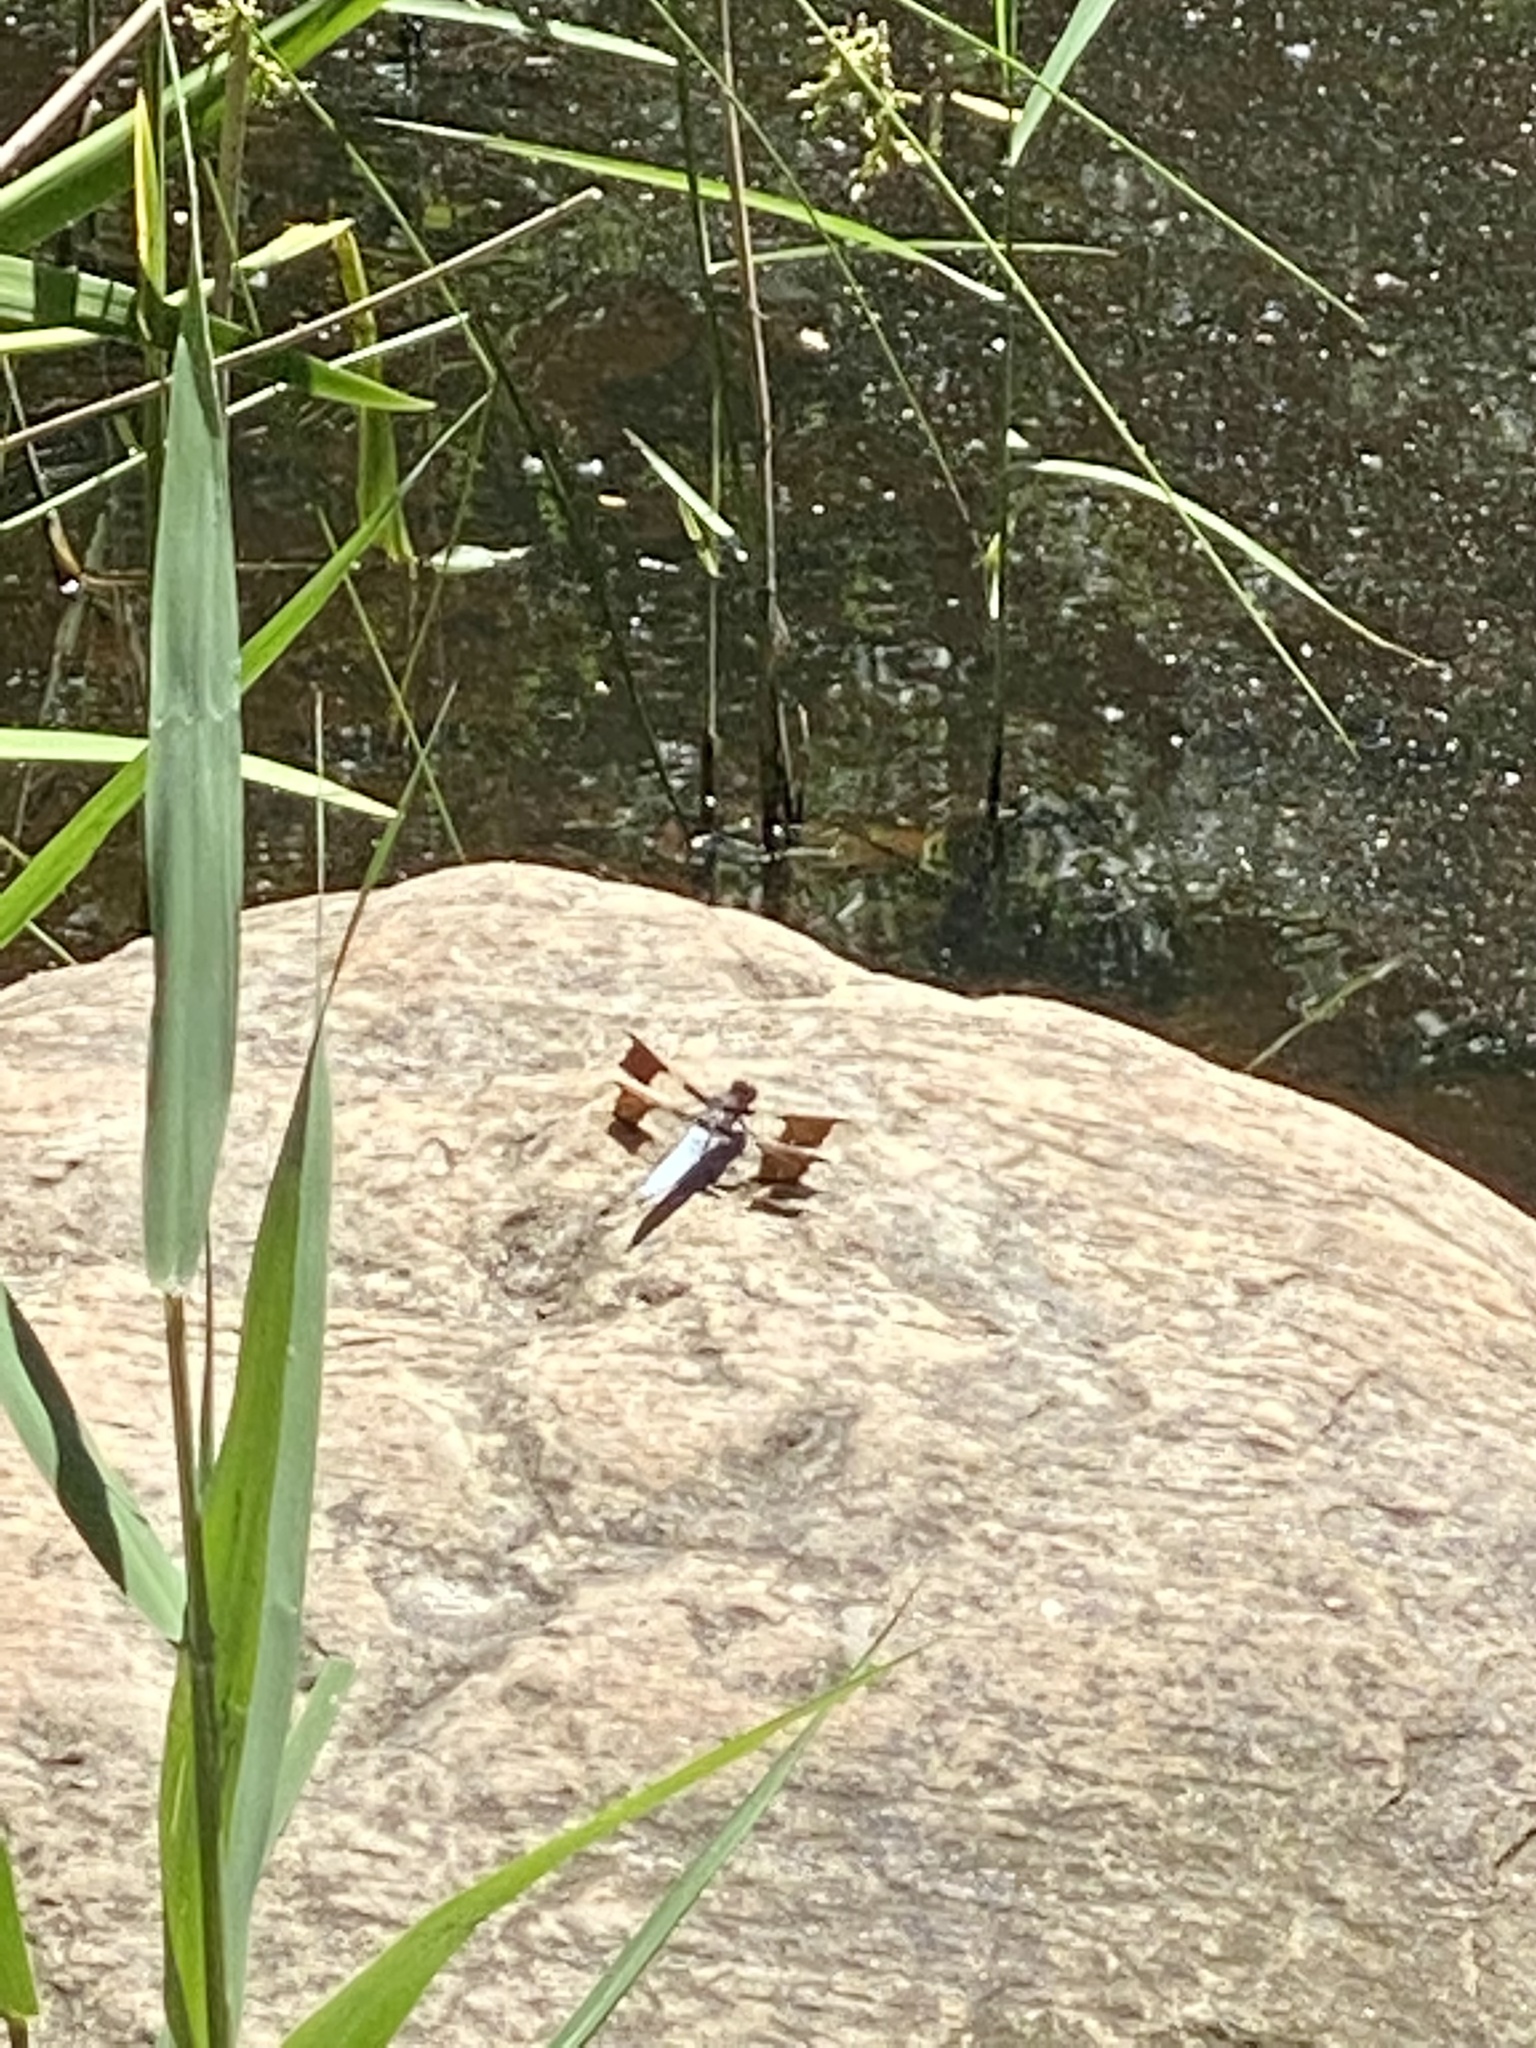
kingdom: Animalia
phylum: Arthropoda
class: Insecta
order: Odonata
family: Libellulidae
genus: Plathemis
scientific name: Plathemis lydia
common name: Common whitetail
